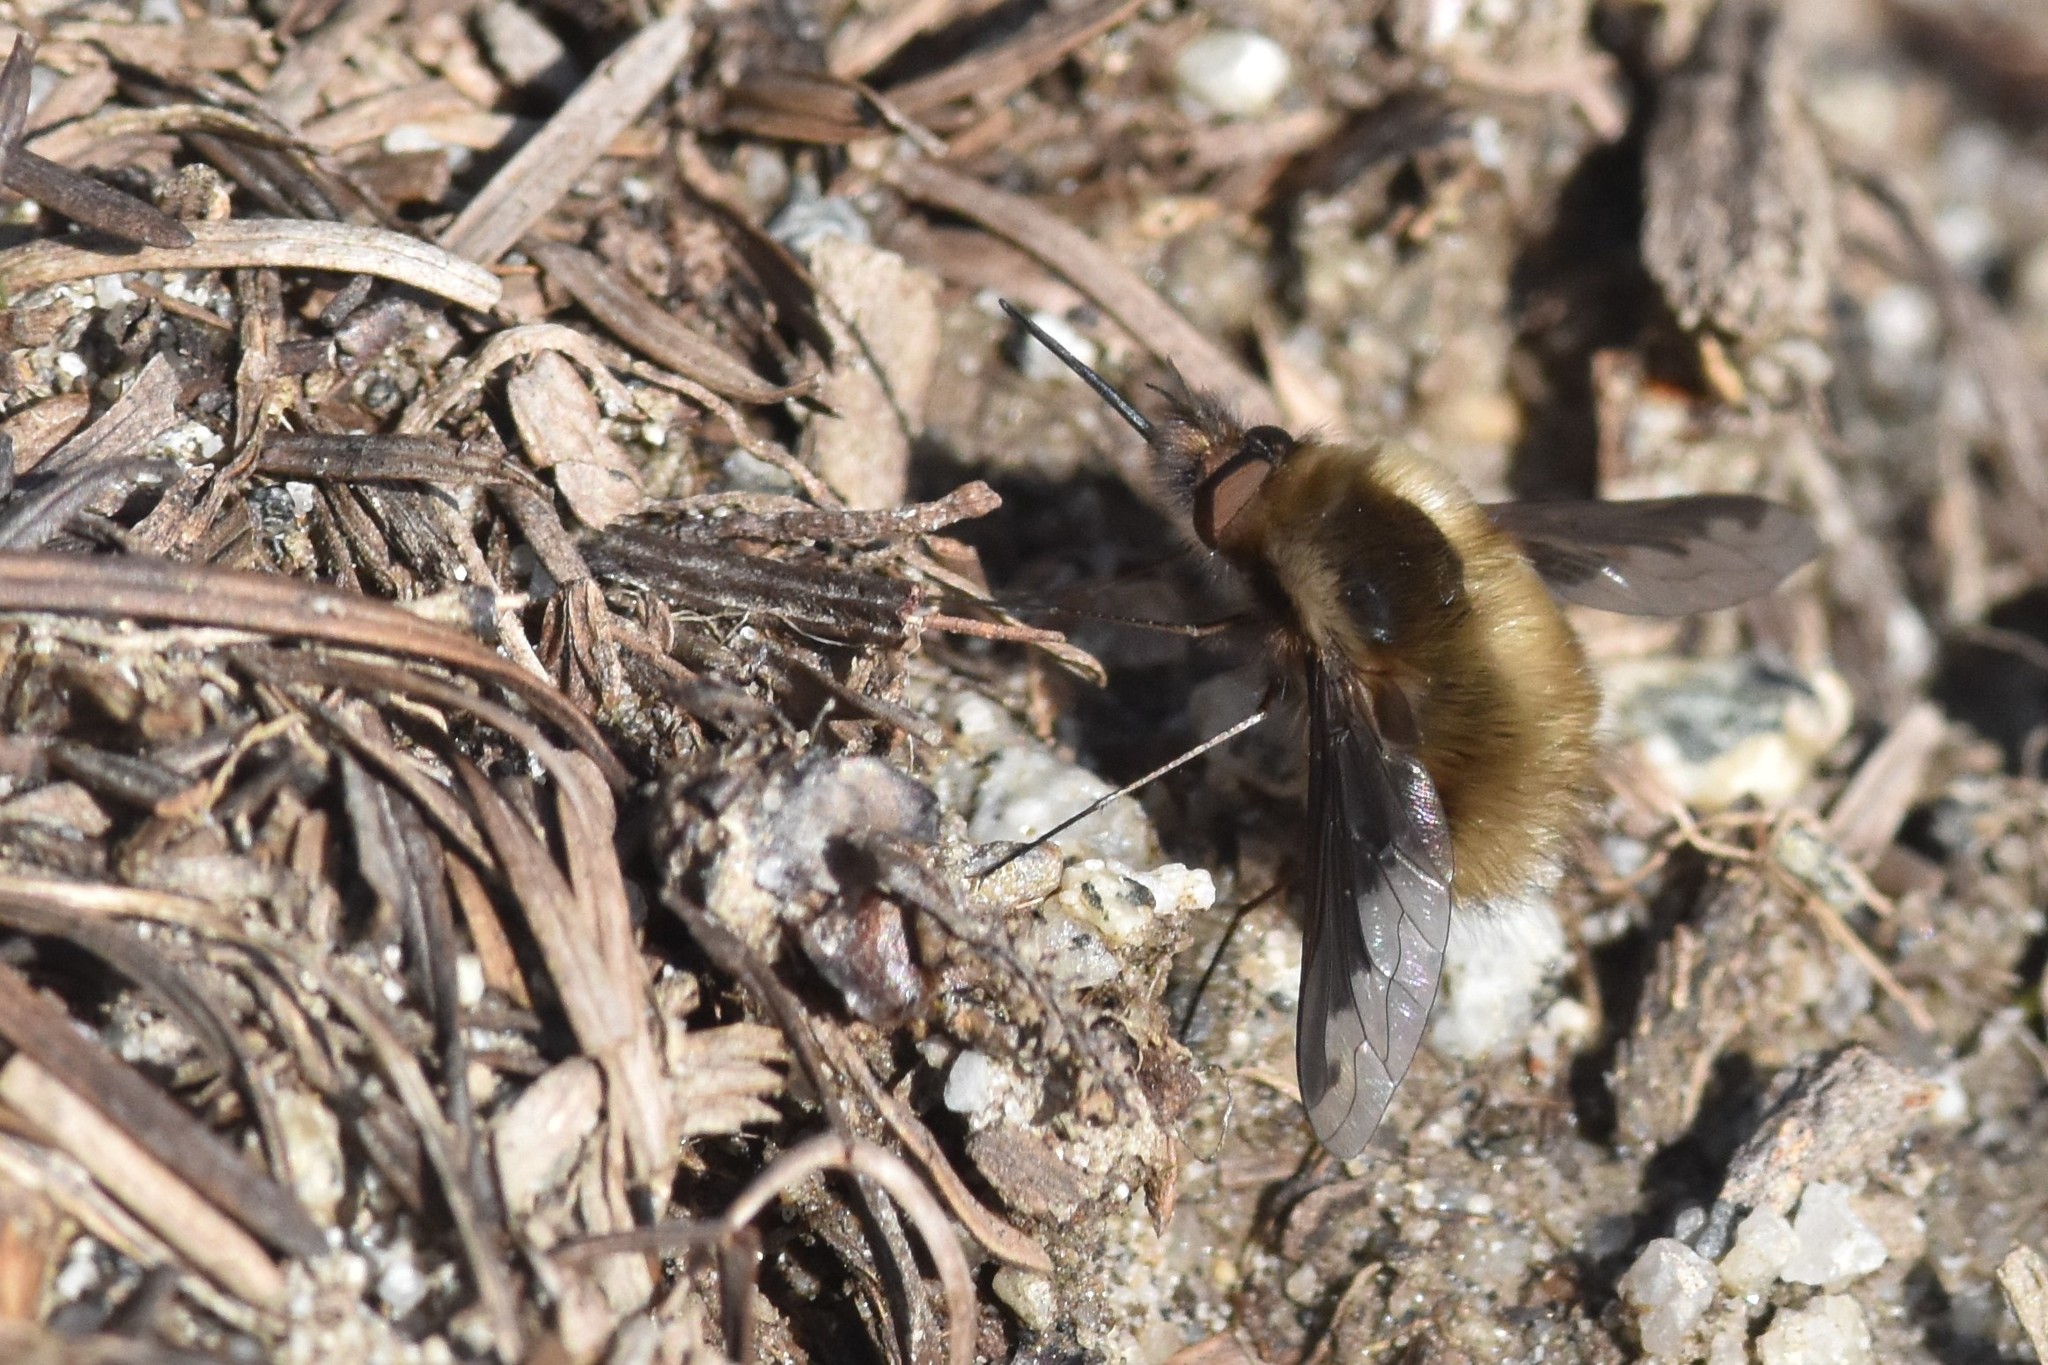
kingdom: Animalia
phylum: Arthropoda
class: Insecta
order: Diptera
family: Bombyliidae
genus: Bombylius
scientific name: Bombylius major
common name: Bee fly
